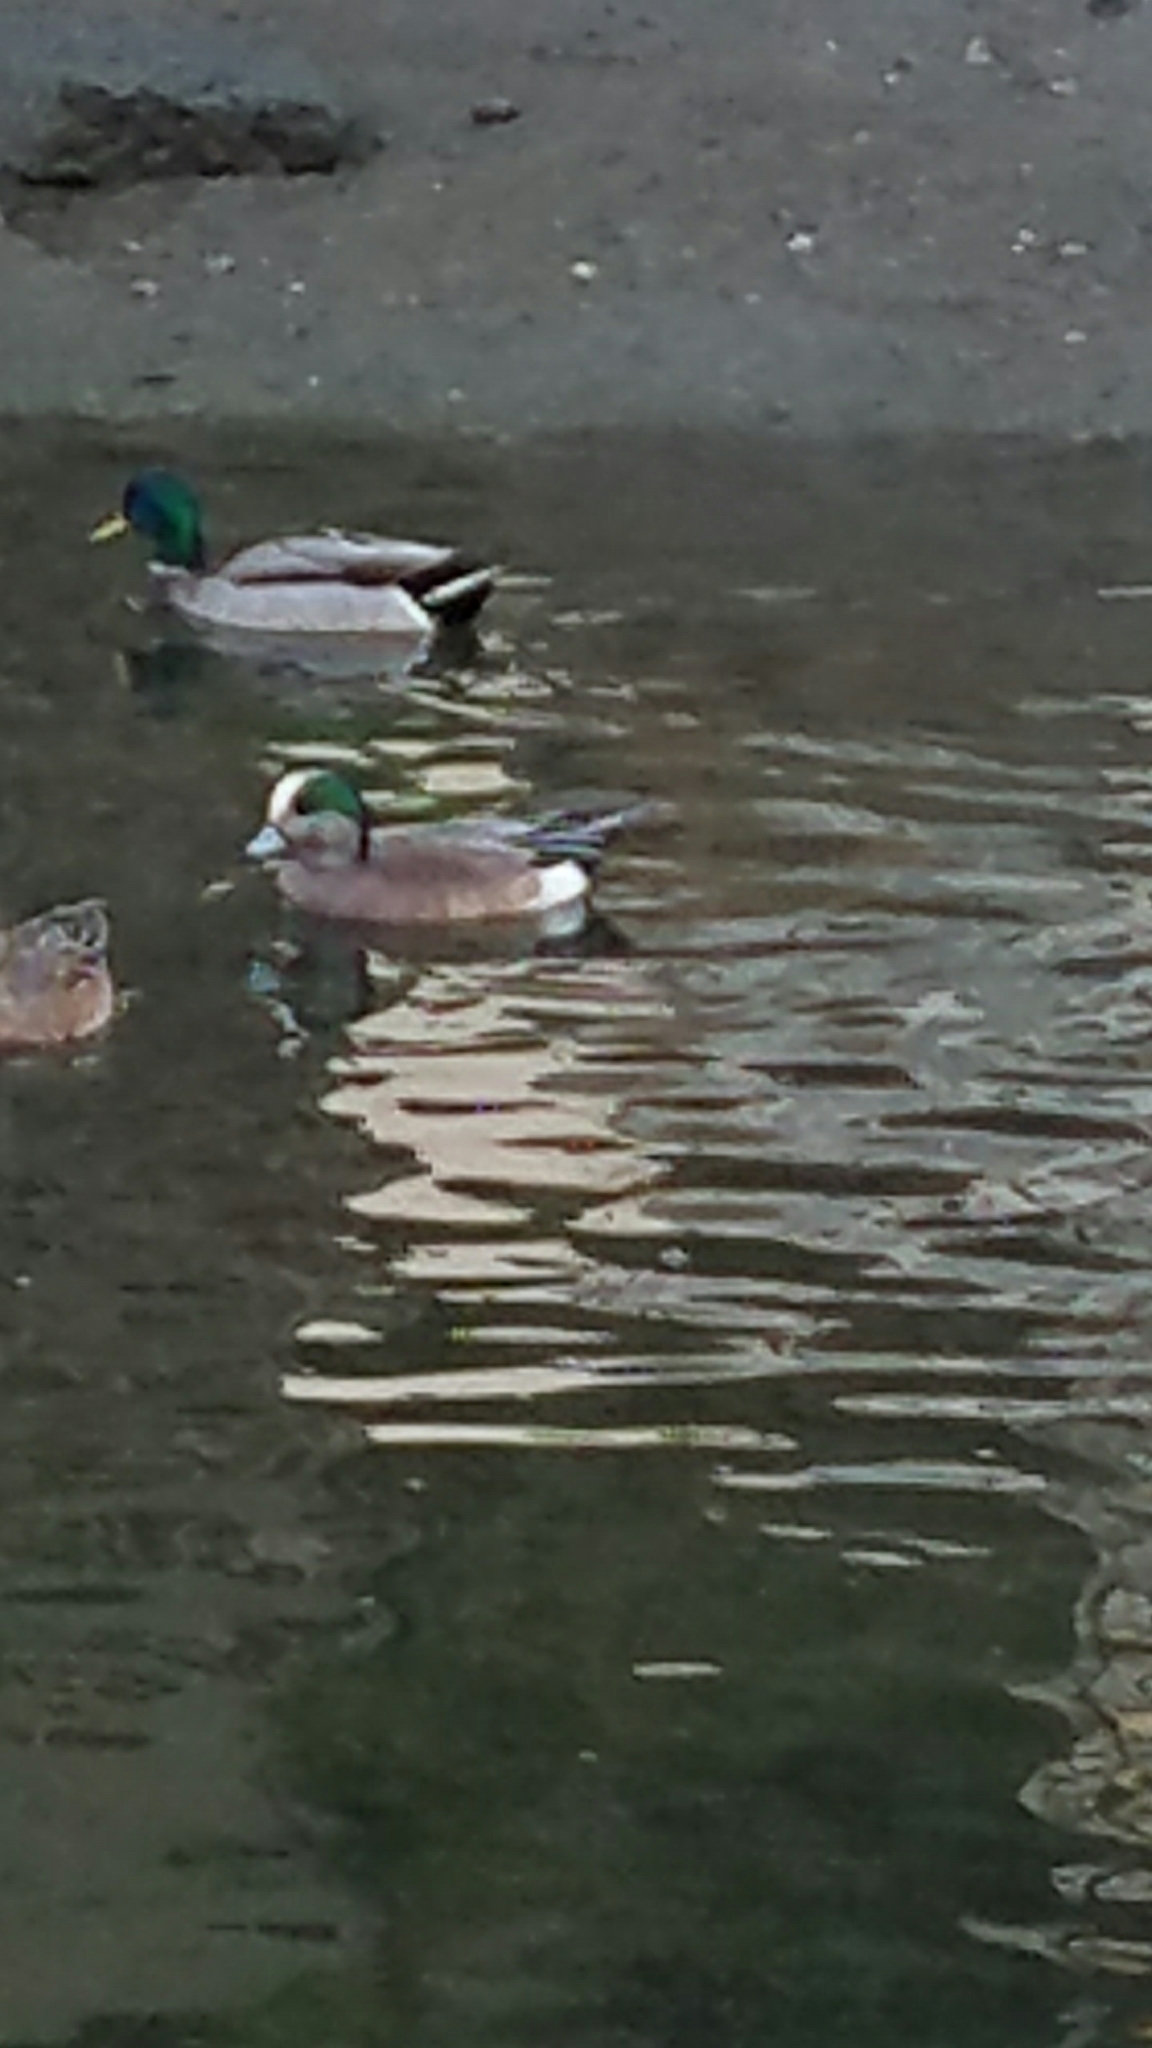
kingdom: Animalia
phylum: Chordata
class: Aves
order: Anseriformes
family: Anatidae
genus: Mareca
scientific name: Mareca americana
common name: American wigeon
